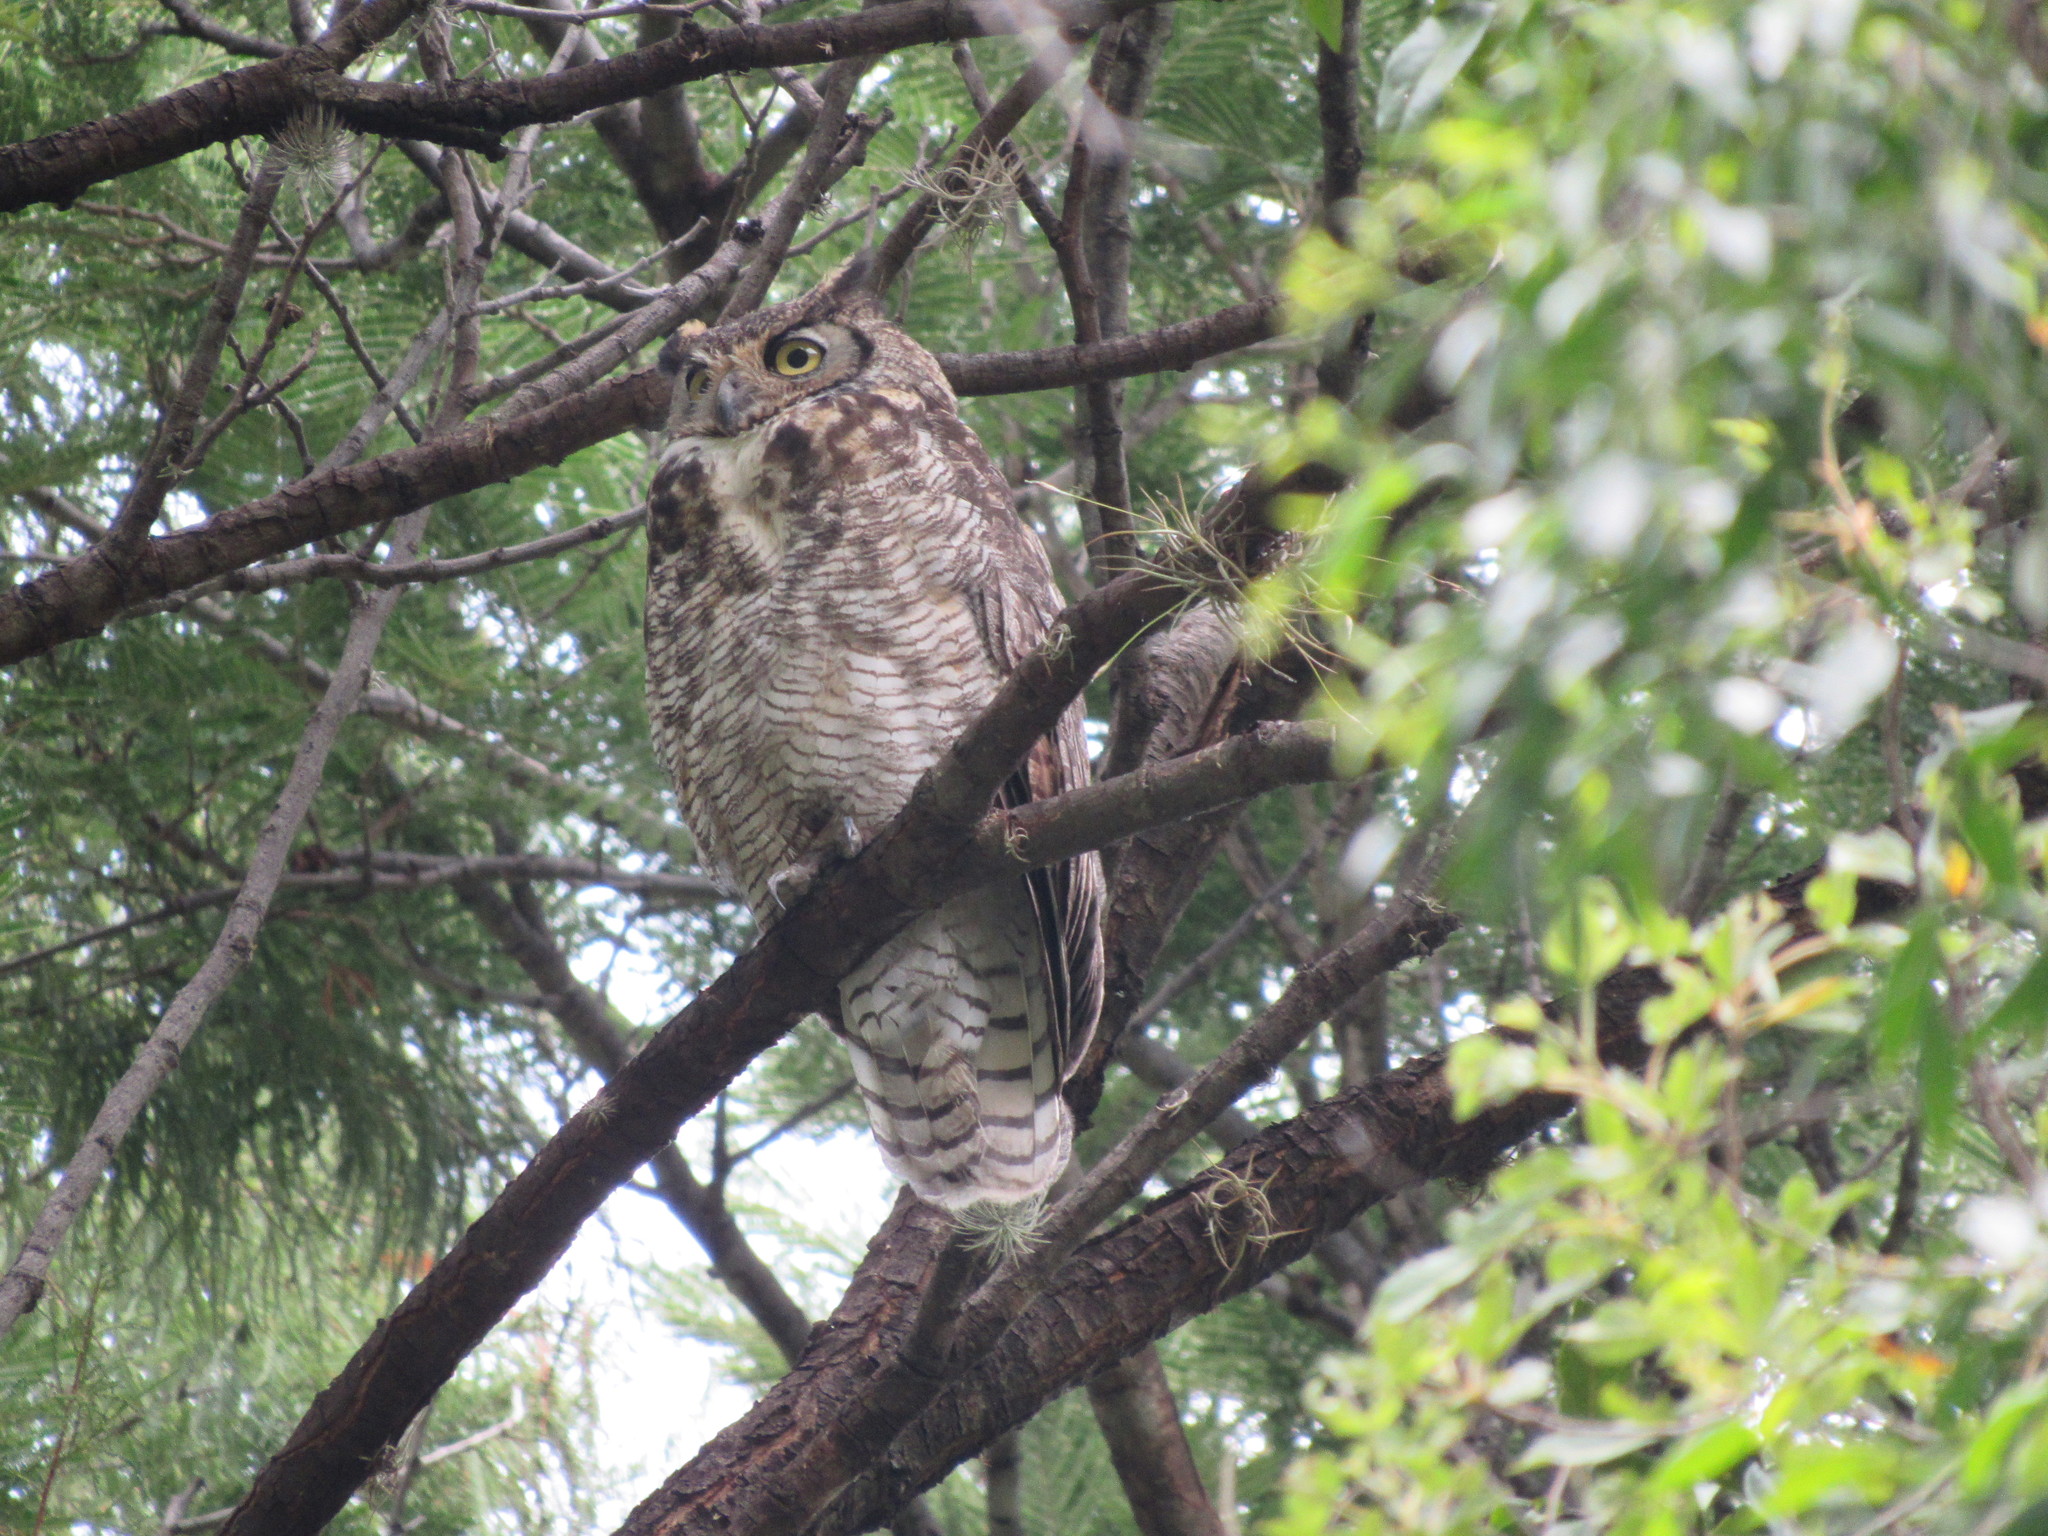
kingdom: Animalia
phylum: Chordata
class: Aves
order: Strigiformes
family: Strigidae
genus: Bubo
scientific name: Bubo virginianus
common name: Great horned owl
